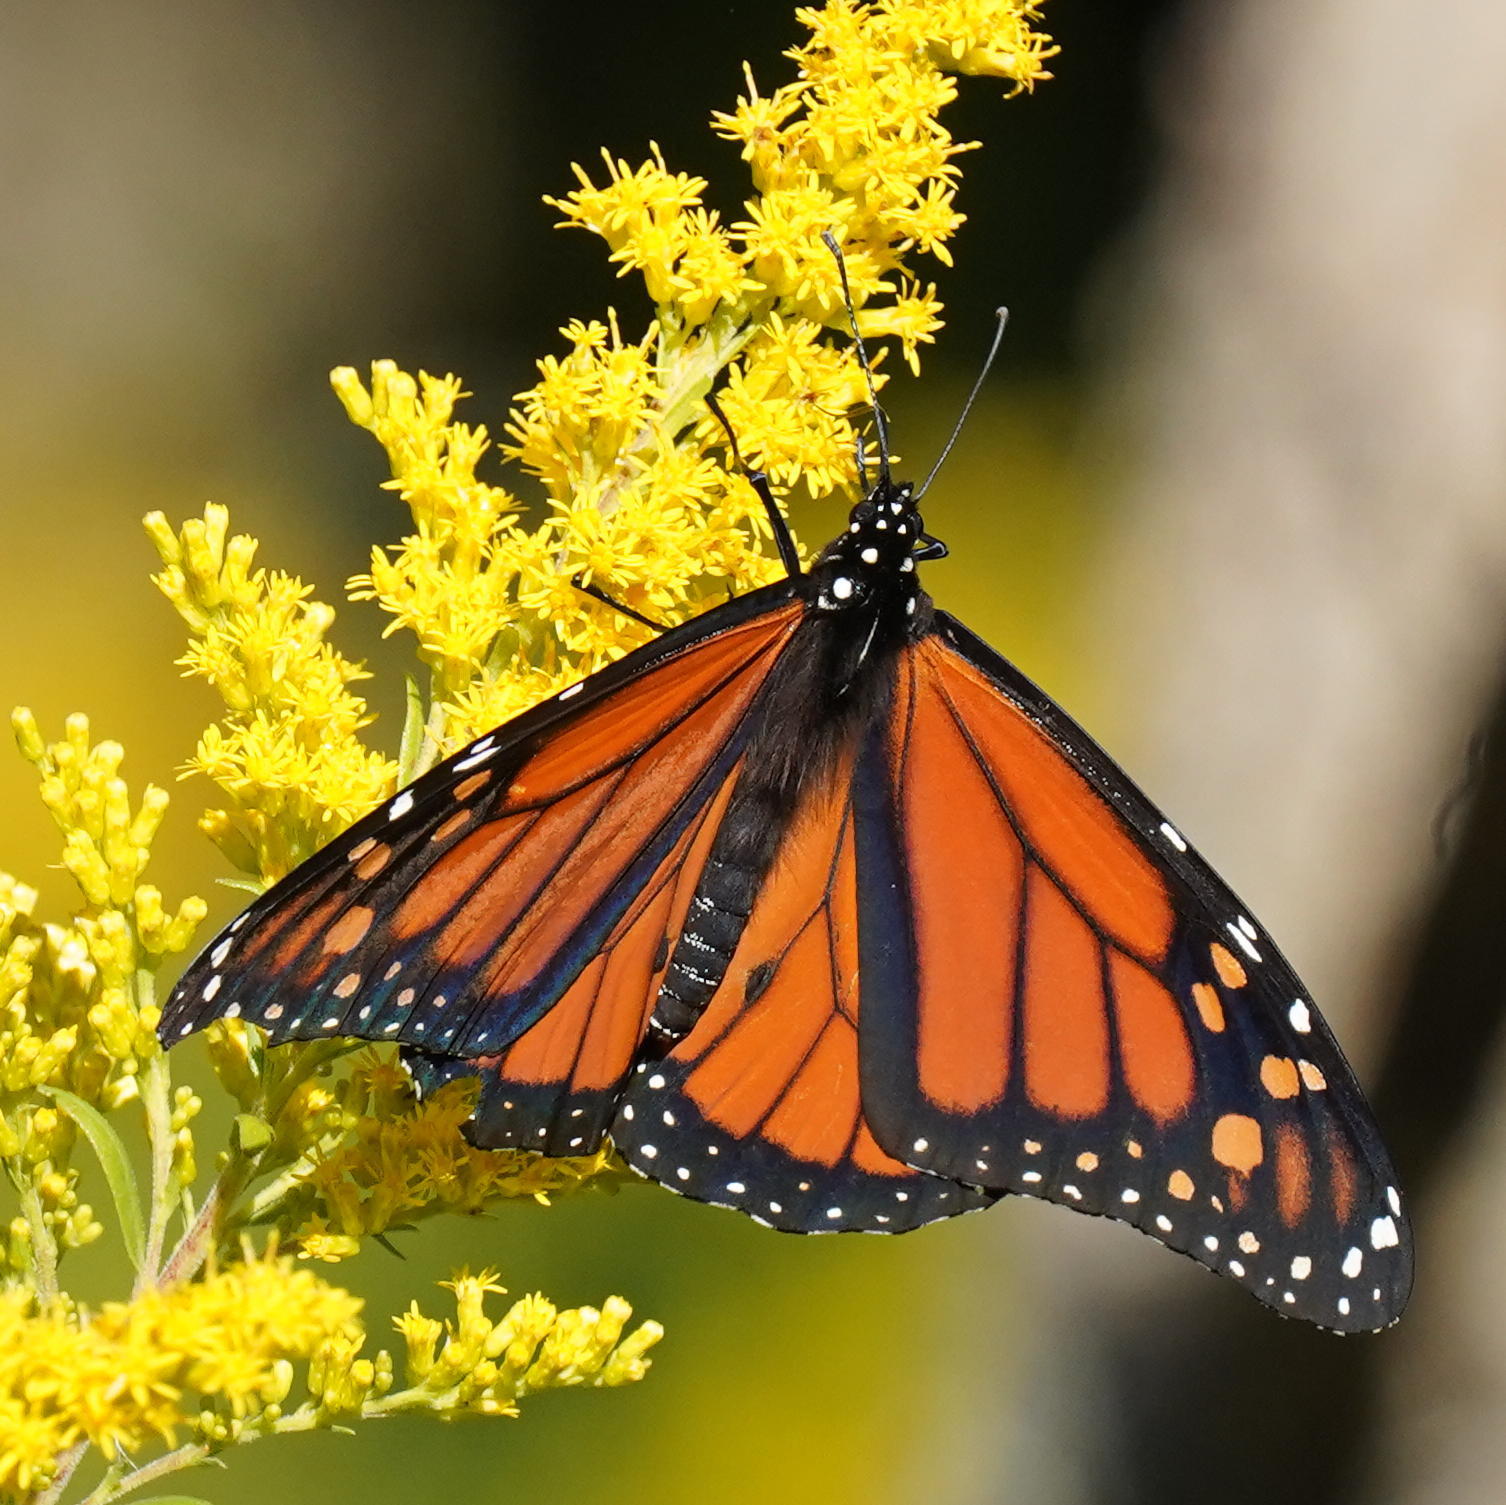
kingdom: Animalia
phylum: Arthropoda
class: Insecta
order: Lepidoptera
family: Nymphalidae
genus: Danaus
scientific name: Danaus plexippus
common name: Monarch
